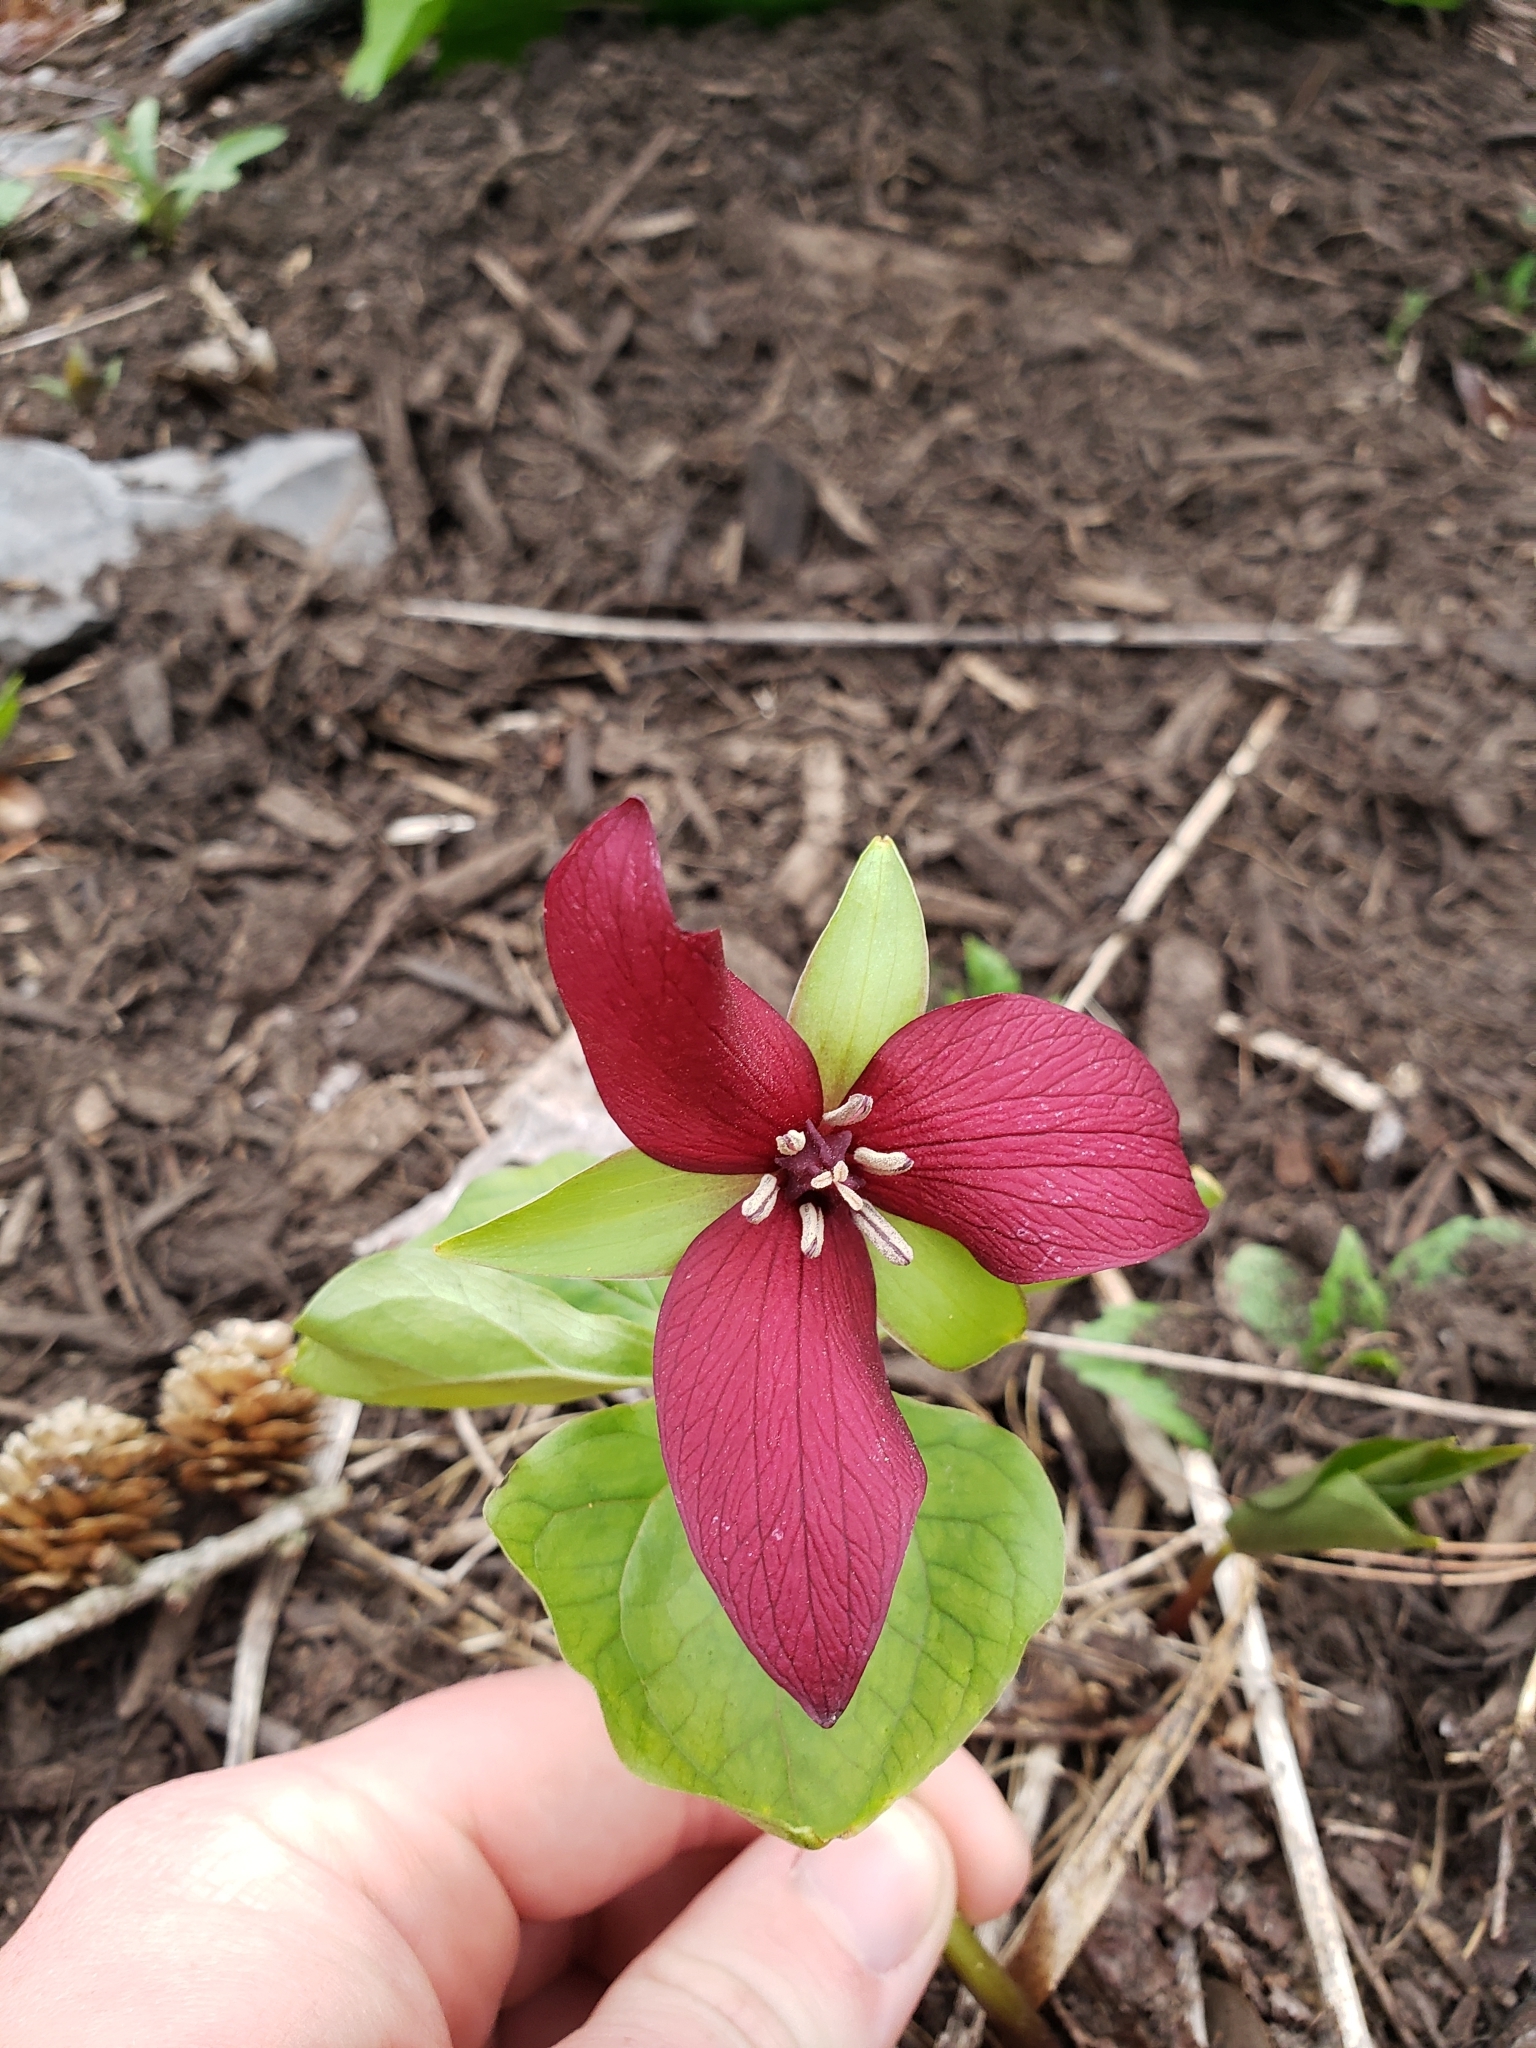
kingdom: Plantae
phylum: Tracheophyta
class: Liliopsida
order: Liliales
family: Melanthiaceae
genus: Trillium
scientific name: Trillium erectum
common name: Purple trillium
